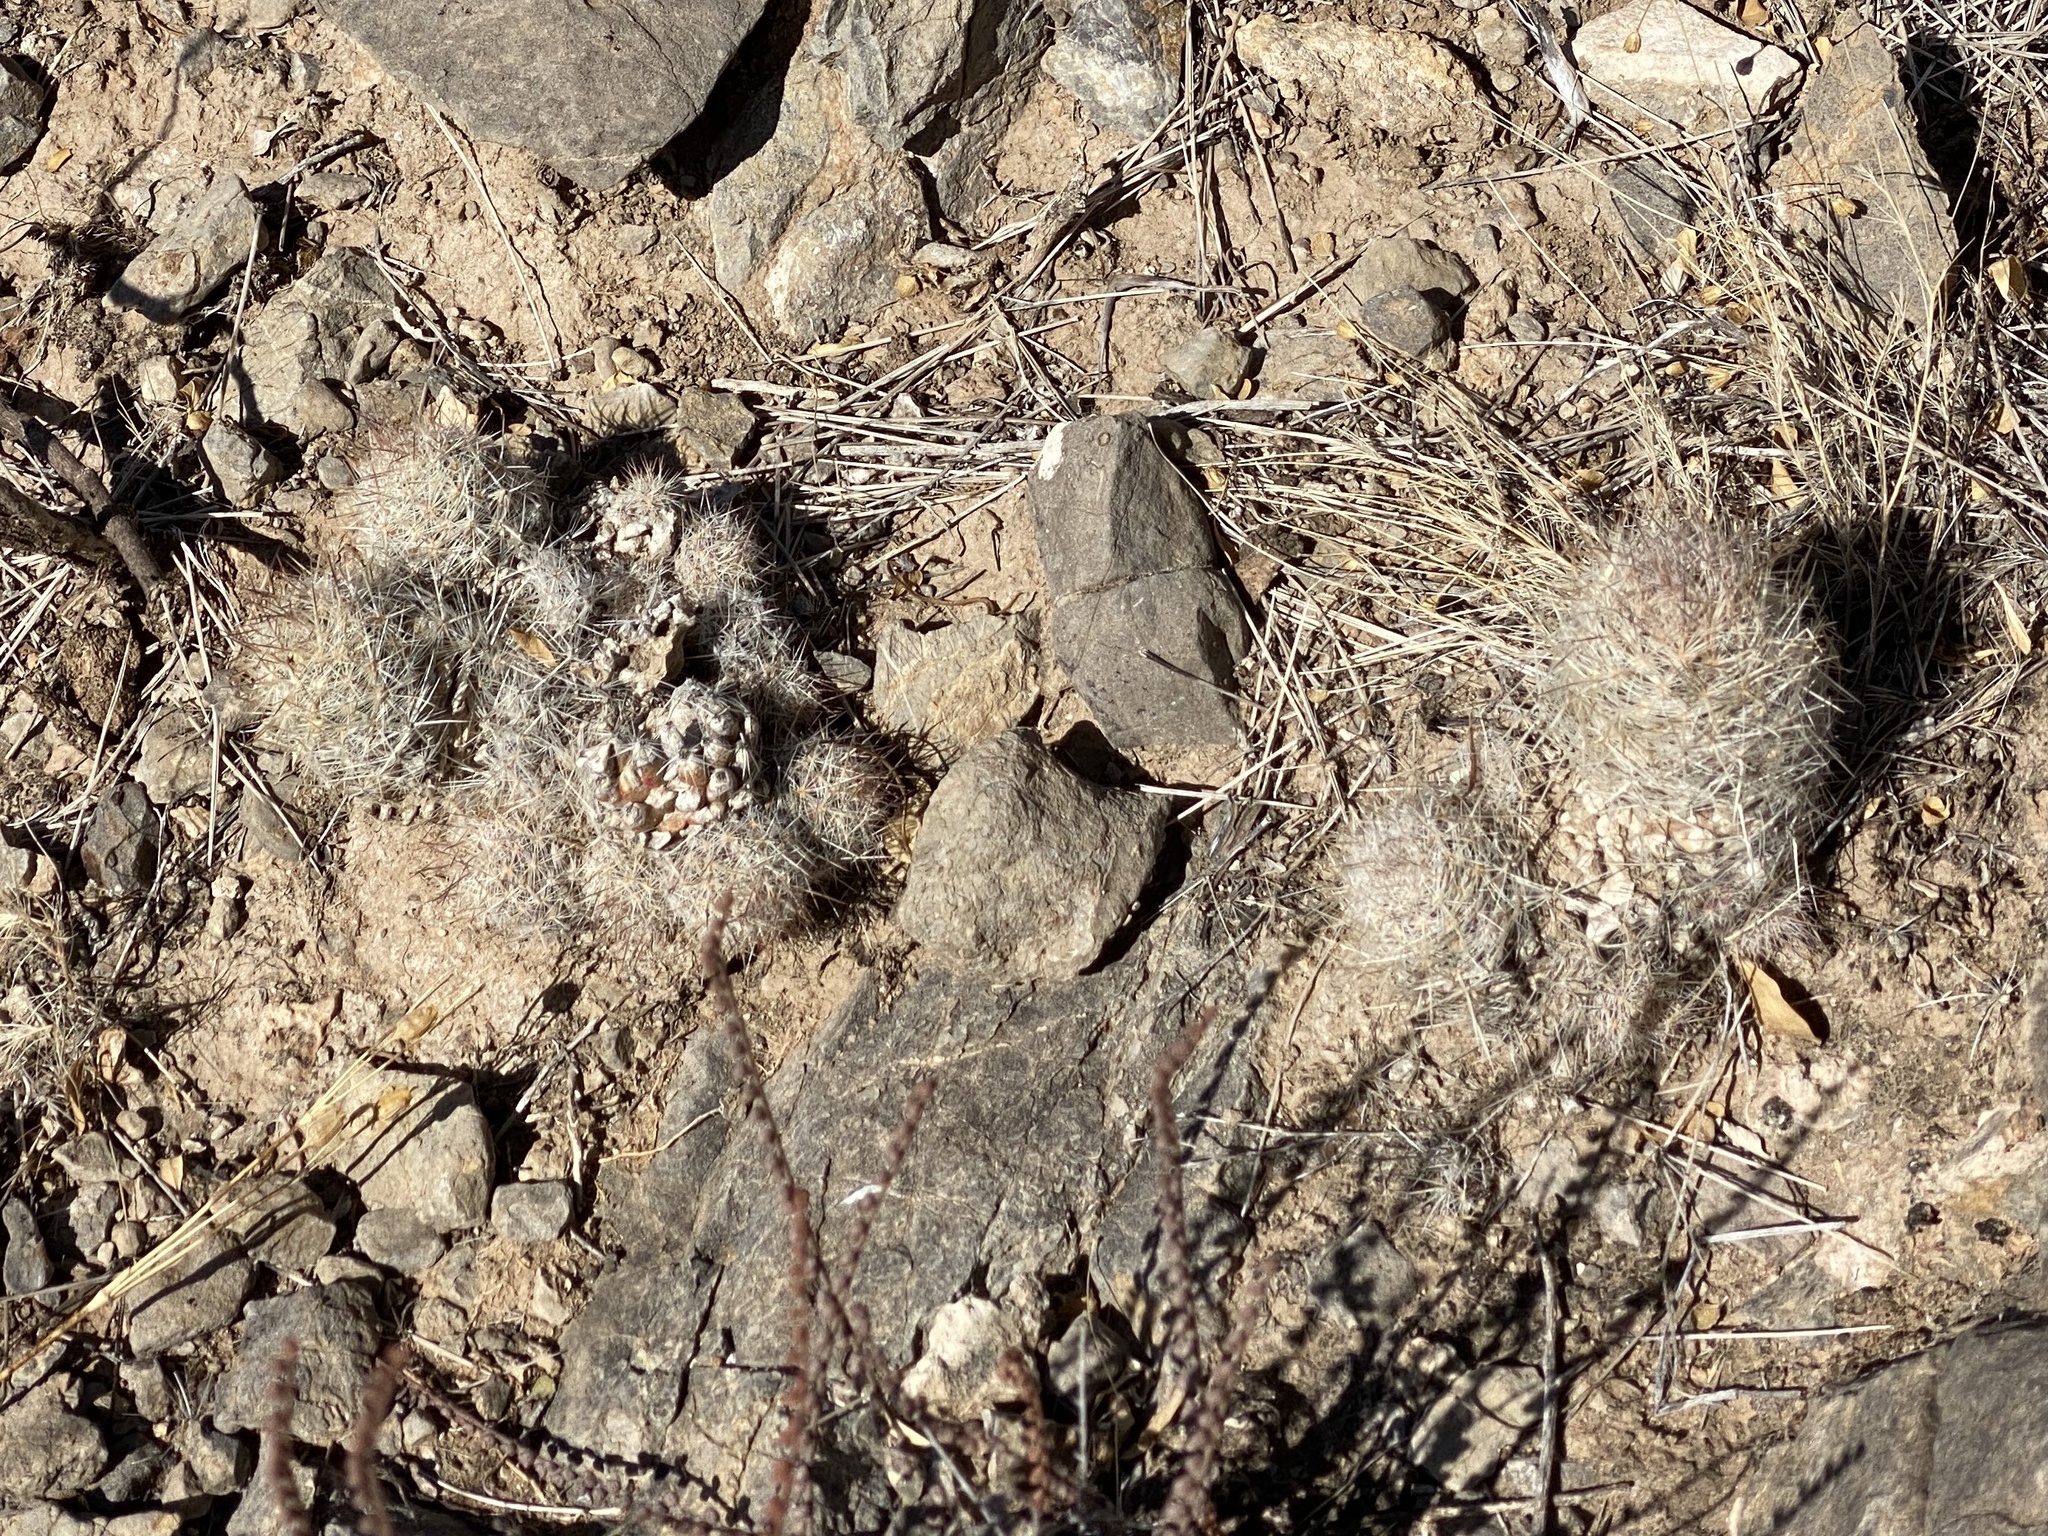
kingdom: Plantae
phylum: Tracheophyta
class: Magnoliopsida
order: Caryophyllales
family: Cactaceae
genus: Pelecyphora
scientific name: Pelecyphora tuberculosa
